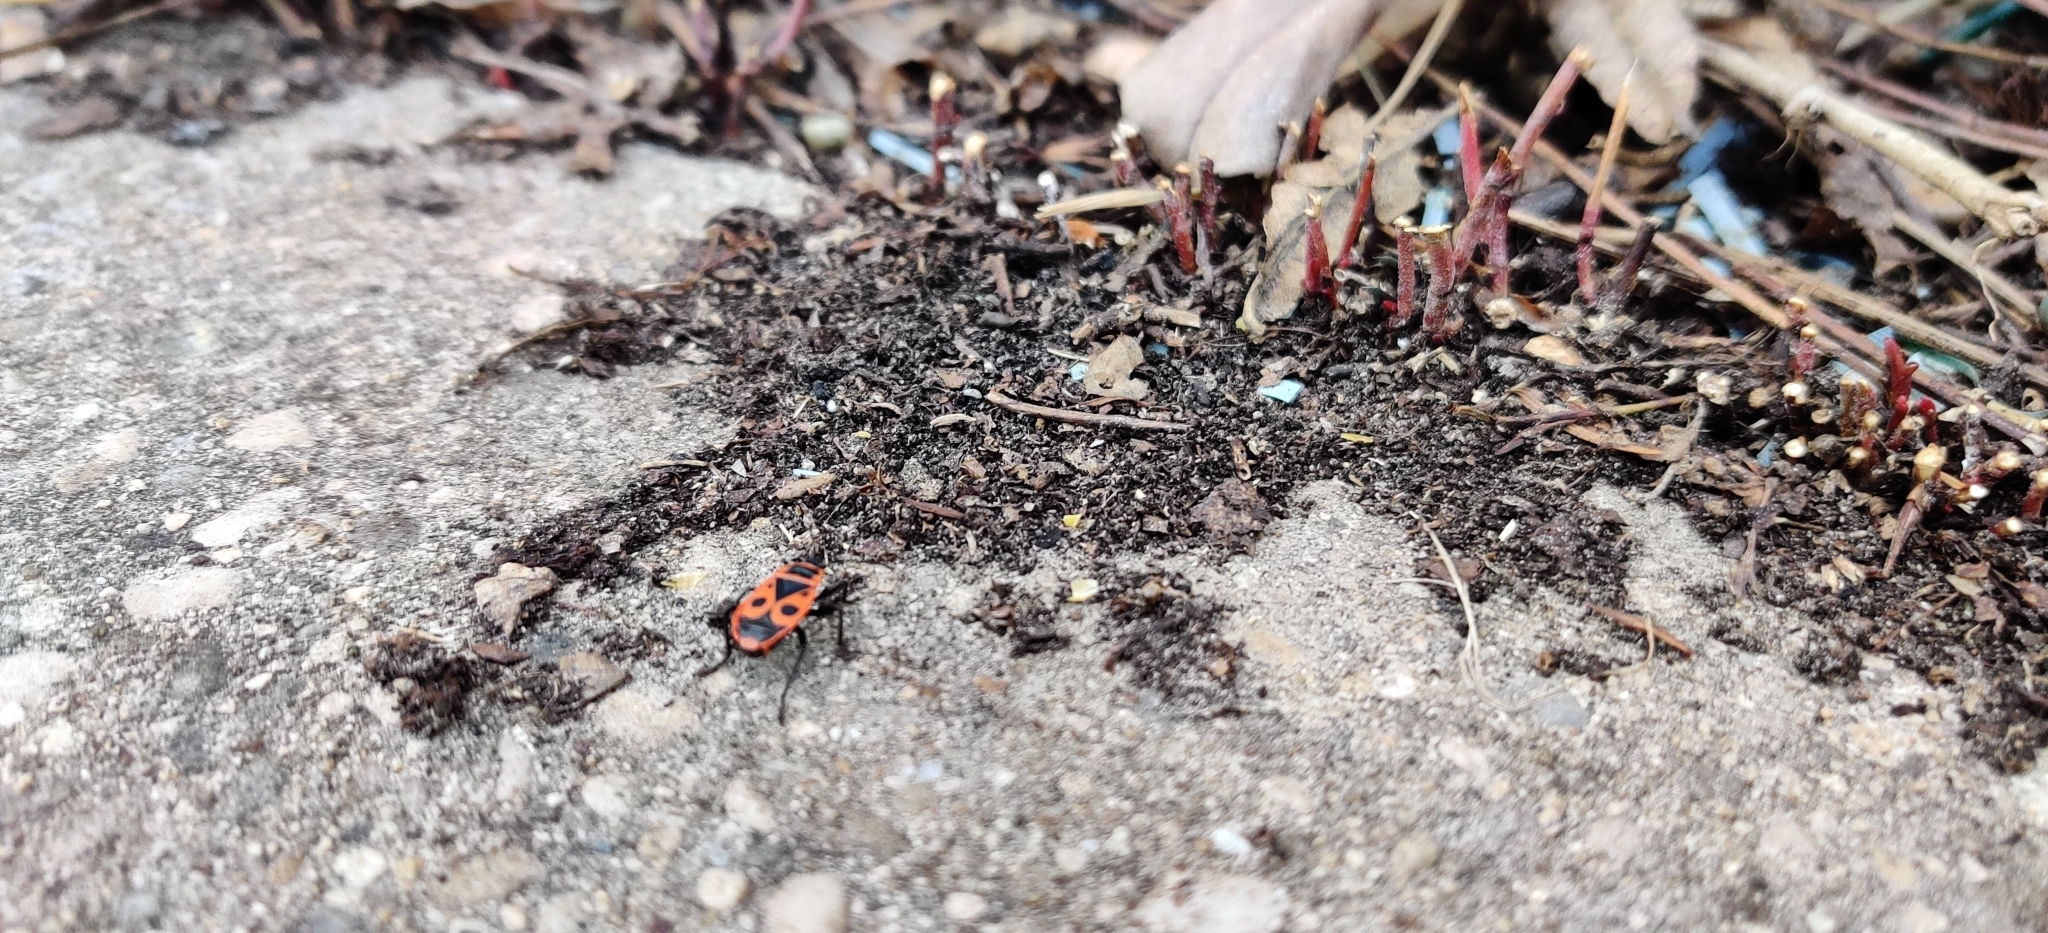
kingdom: Animalia
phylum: Arthropoda
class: Insecta
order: Hemiptera
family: Pyrrhocoridae
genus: Pyrrhocoris
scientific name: Pyrrhocoris apterus
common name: Firebug
